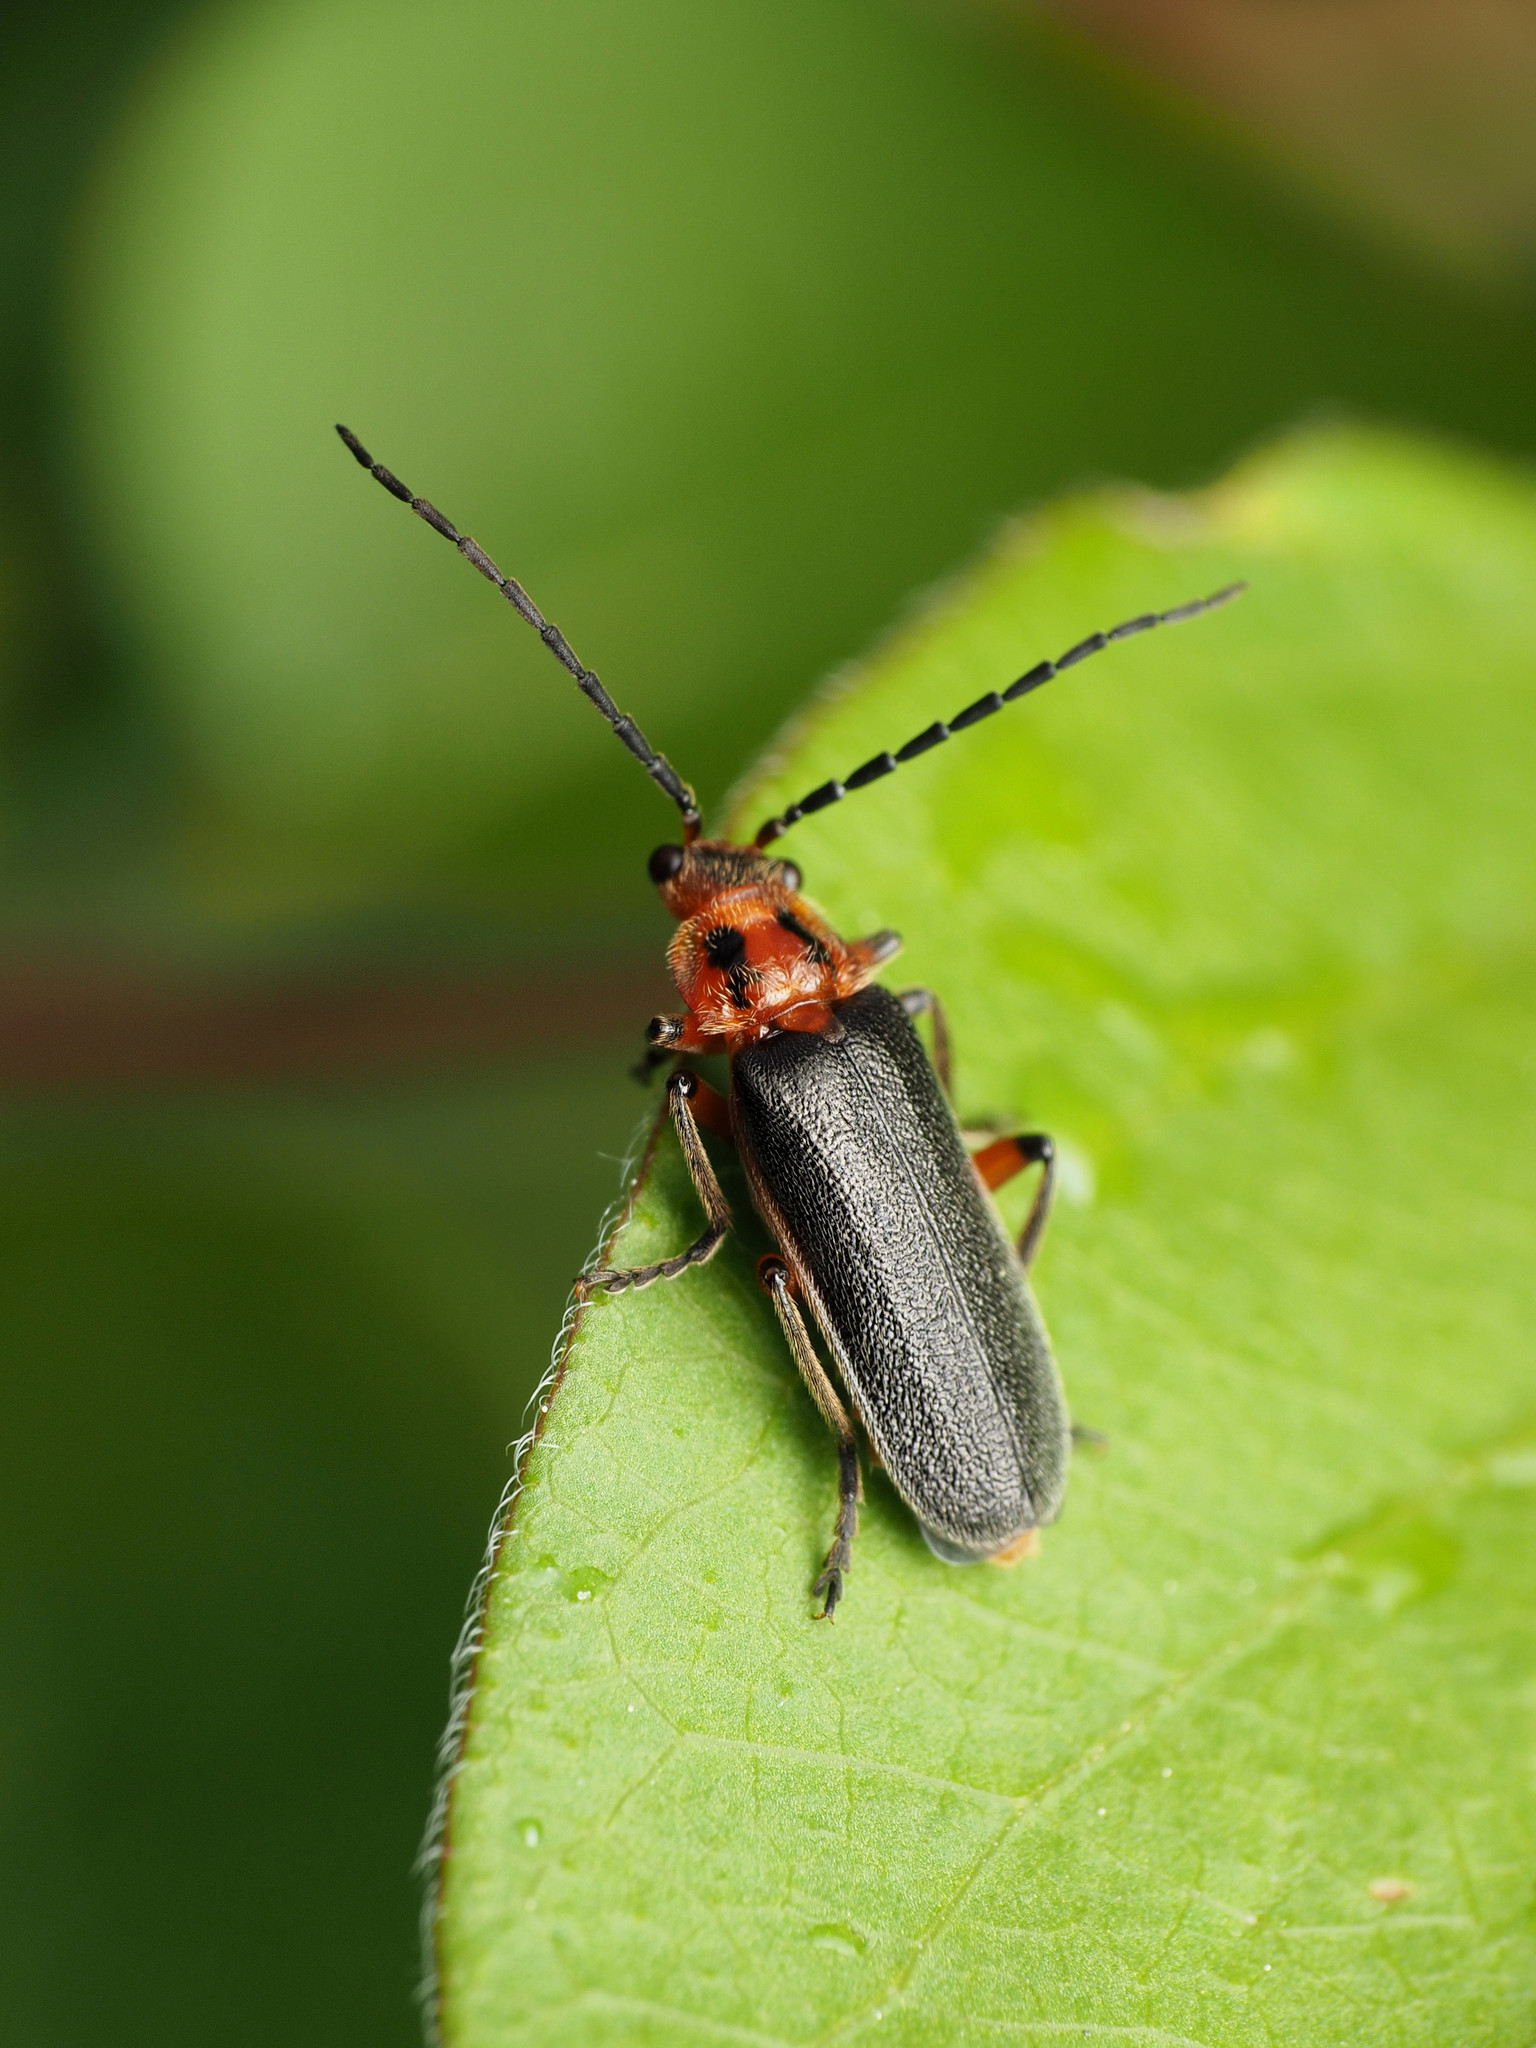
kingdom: Animalia
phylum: Arthropoda
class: Insecta
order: Coleoptera
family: Cantharidae
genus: Atalantycha
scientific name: Atalantycha bilineata
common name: Two-lined leatherwing
